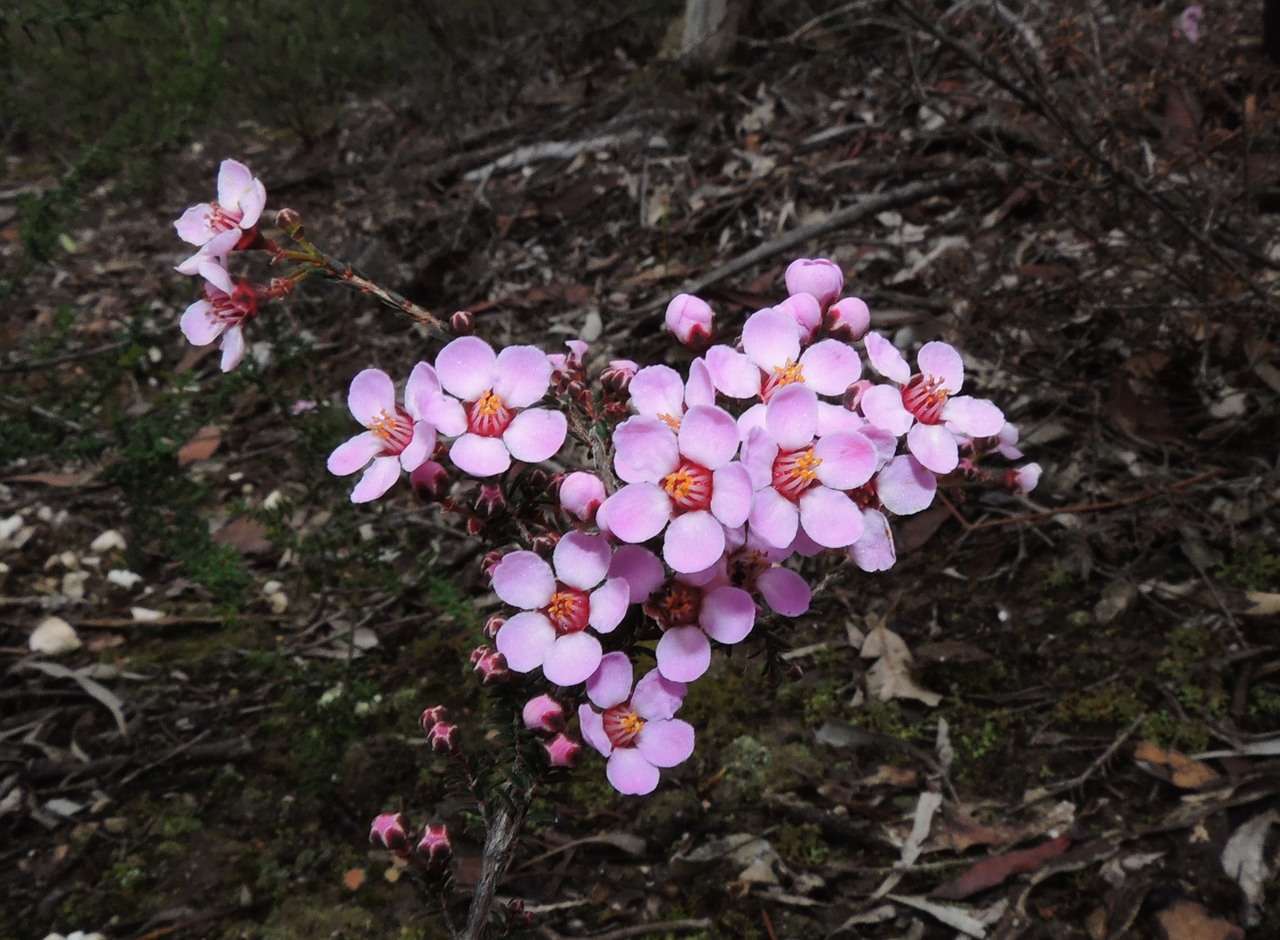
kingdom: Plantae
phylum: Tracheophyta
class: Magnoliopsida
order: Myrtales
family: Myrtaceae
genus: Euryomyrtus
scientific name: Euryomyrtus ramosissima
